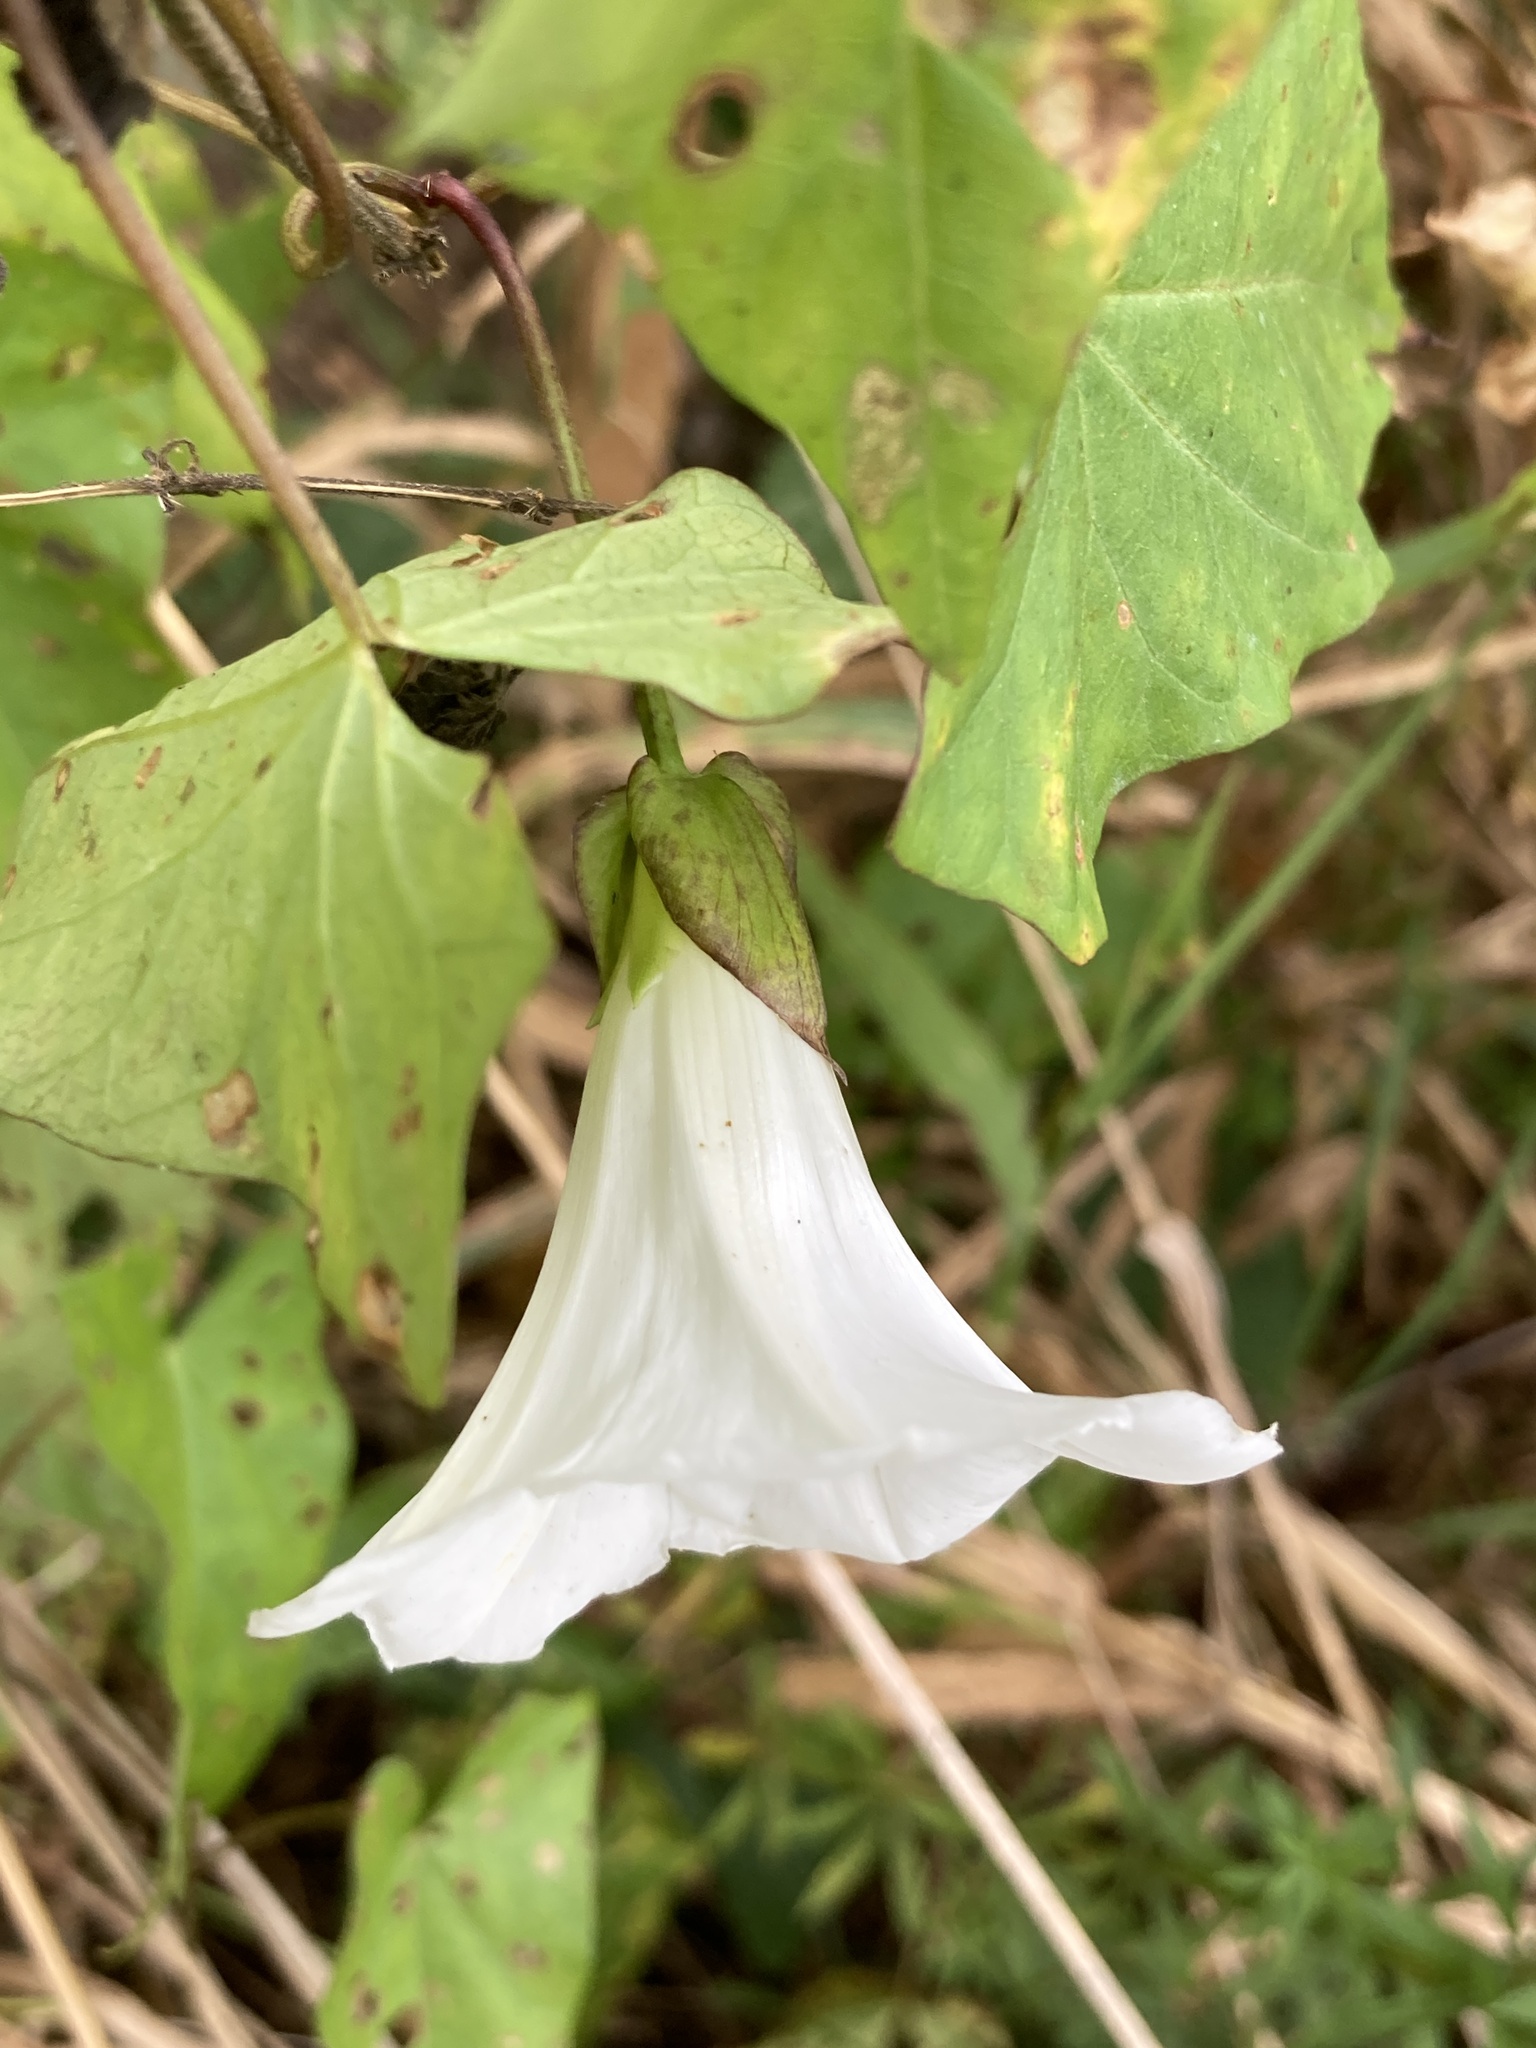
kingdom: Plantae
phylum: Tracheophyta
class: Magnoliopsida
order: Solanales
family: Convolvulaceae
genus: Calystegia
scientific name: Calystegia sepium
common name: Hedge bindweed
